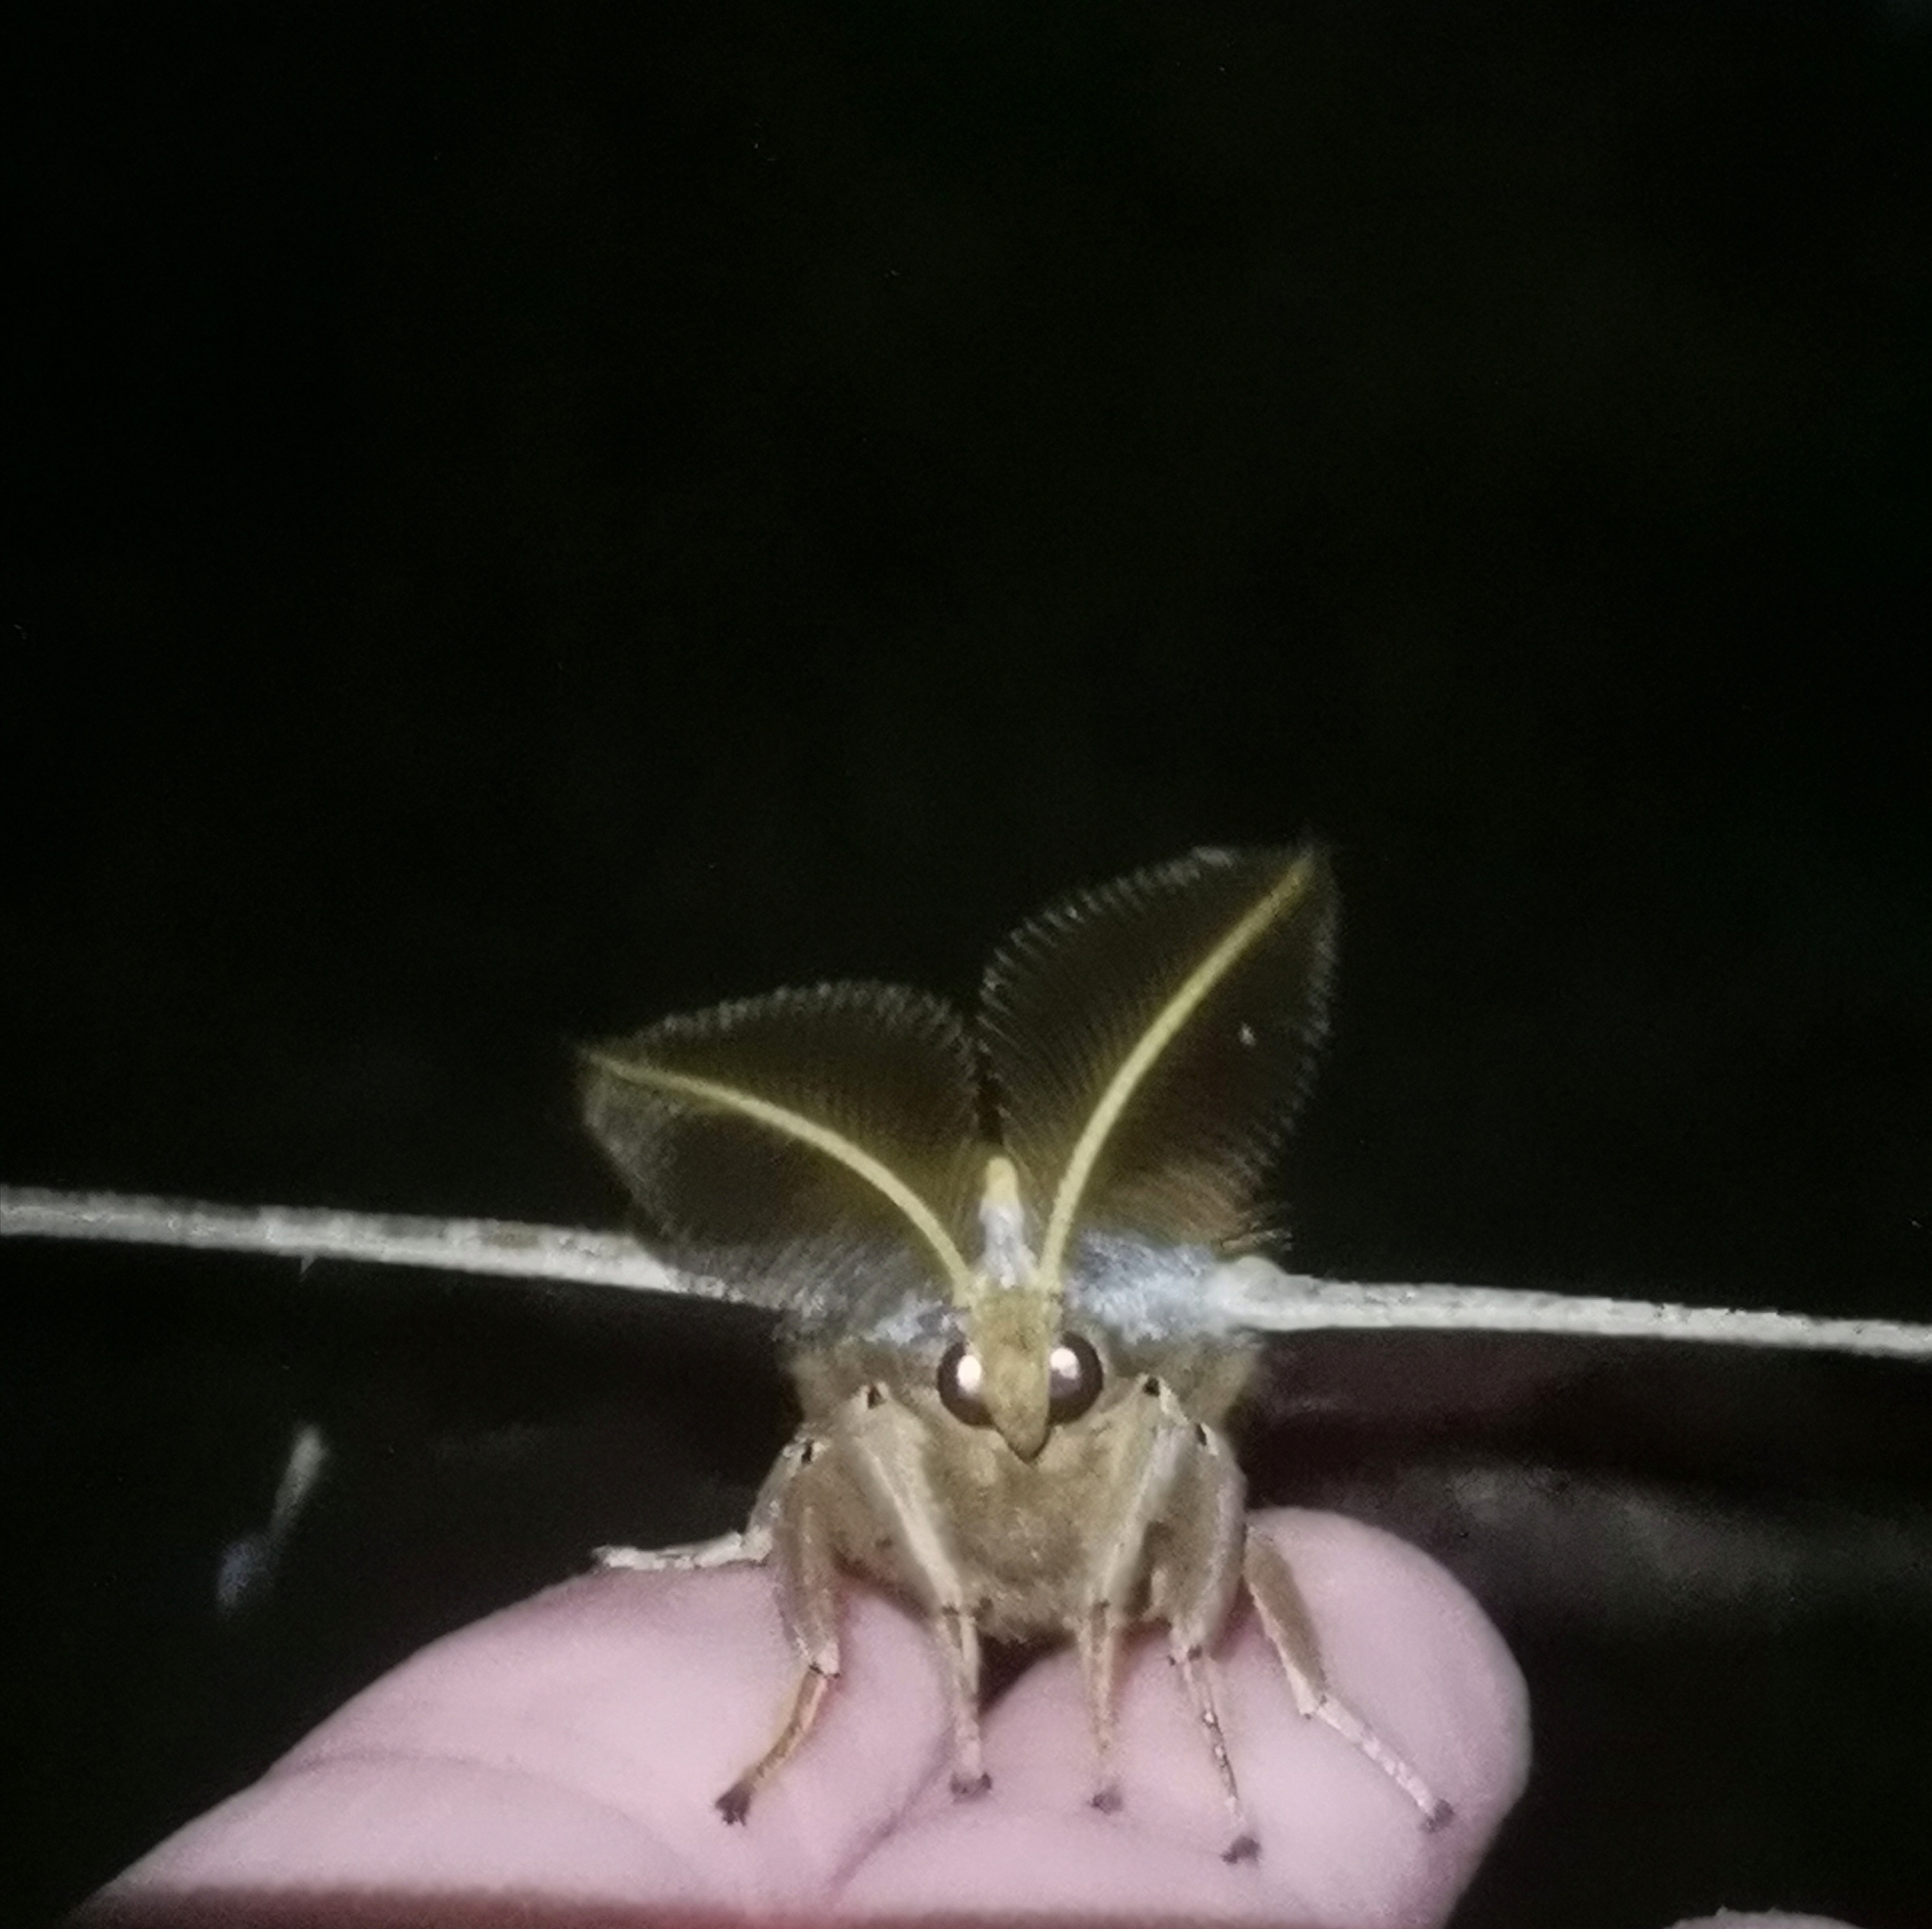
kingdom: Animalia
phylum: Arthropoda
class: Insecta
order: Lepidoptera
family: Saturniidae
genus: Antheraea
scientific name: Antheraea polyphemus
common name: Polyphemus moth
